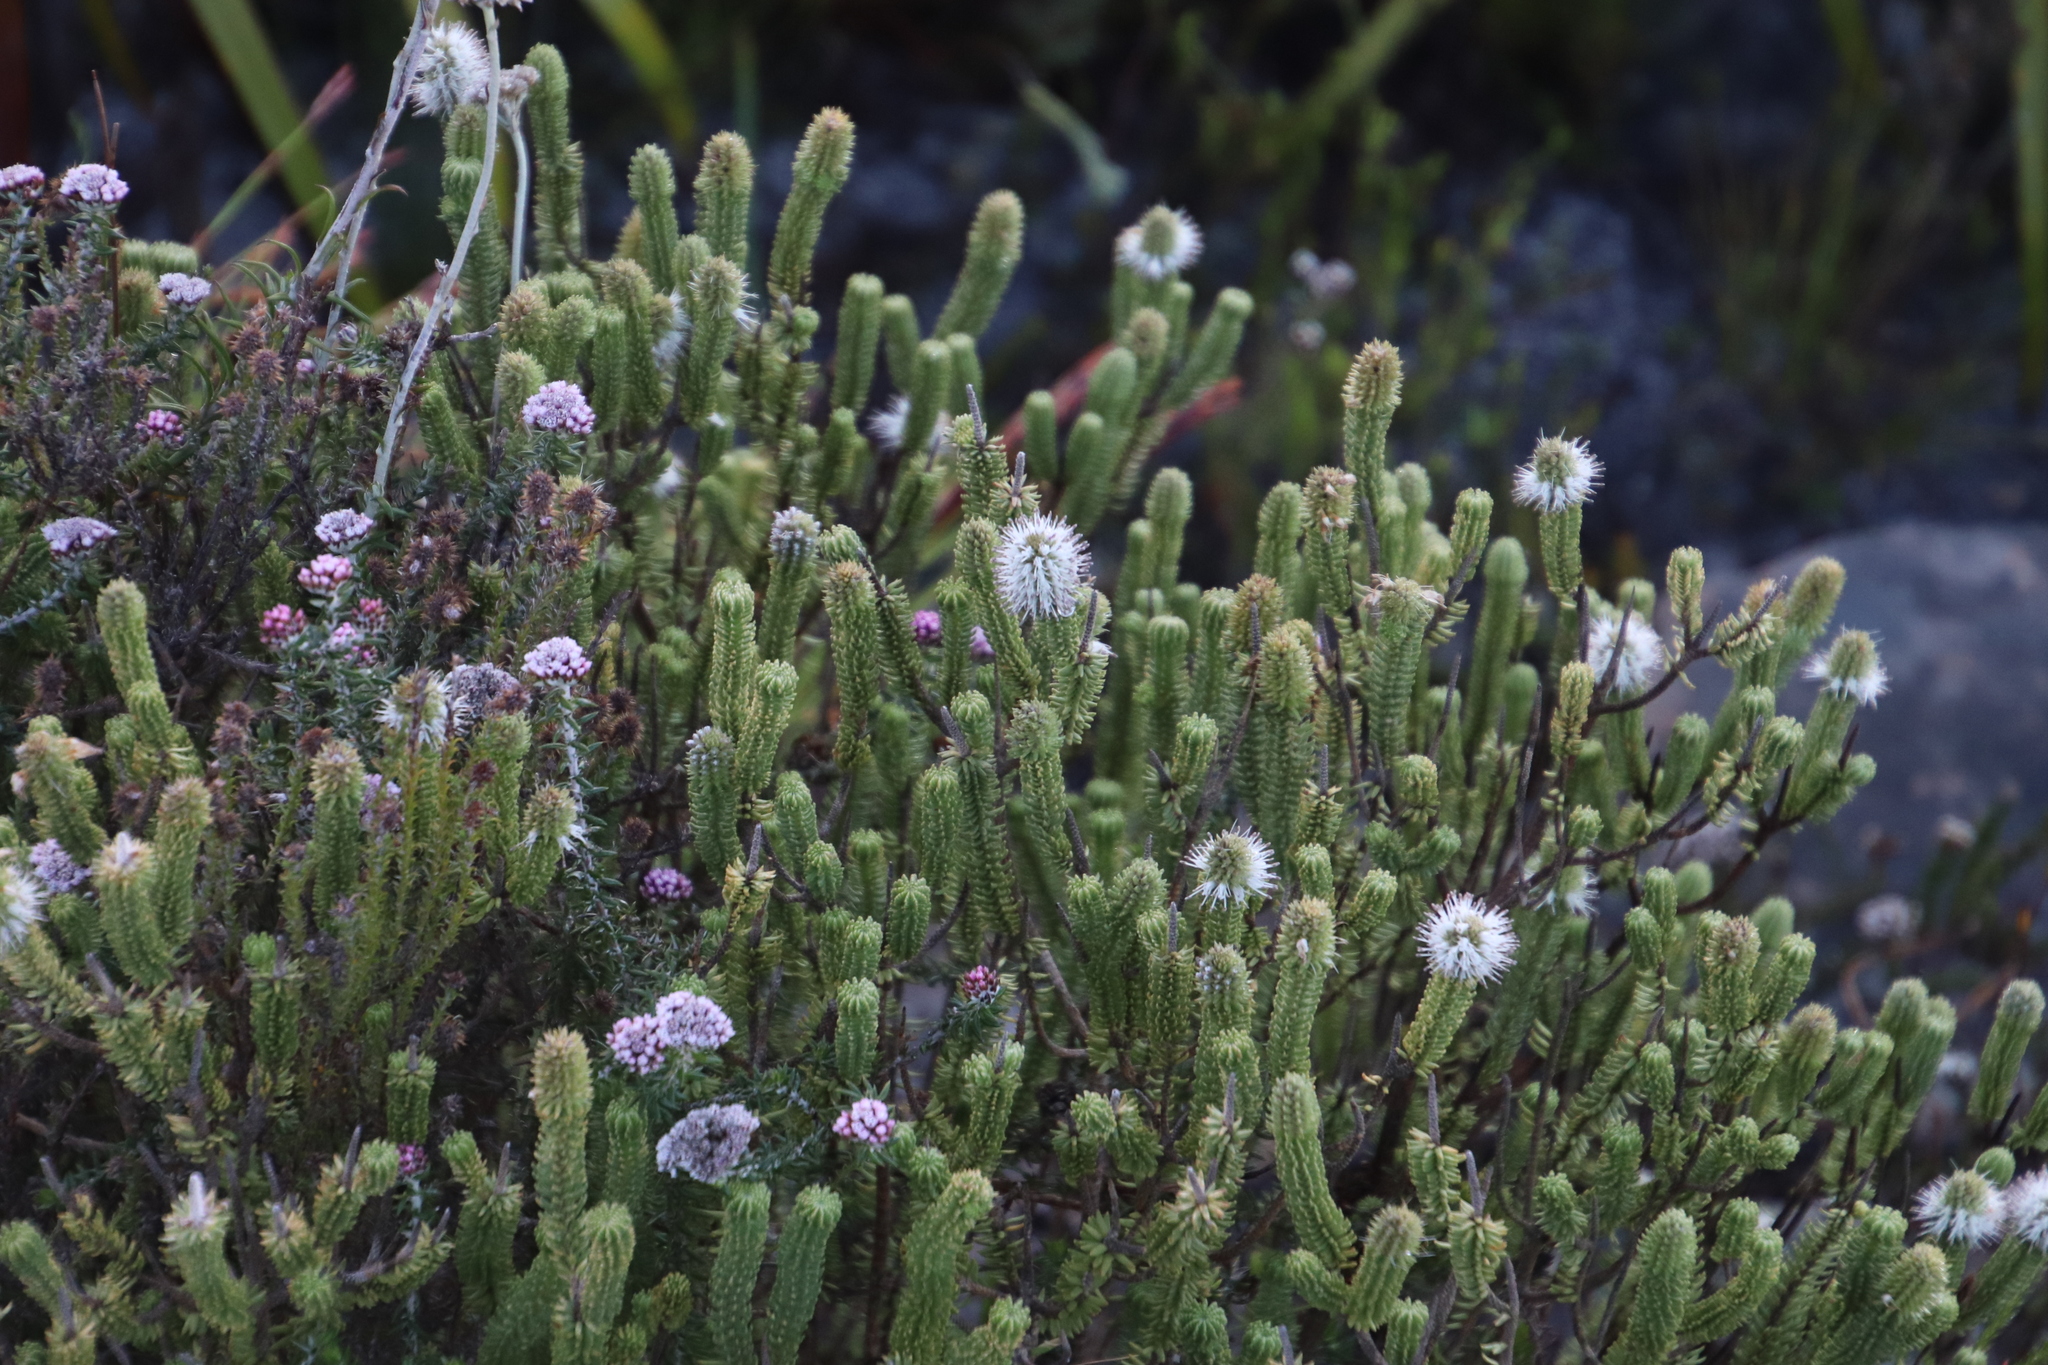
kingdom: Plantae
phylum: Tracheophyta
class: Magnoliopsida
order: Lamiales
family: Stilbaceae
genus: Stilbe
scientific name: Stilbe vestita
